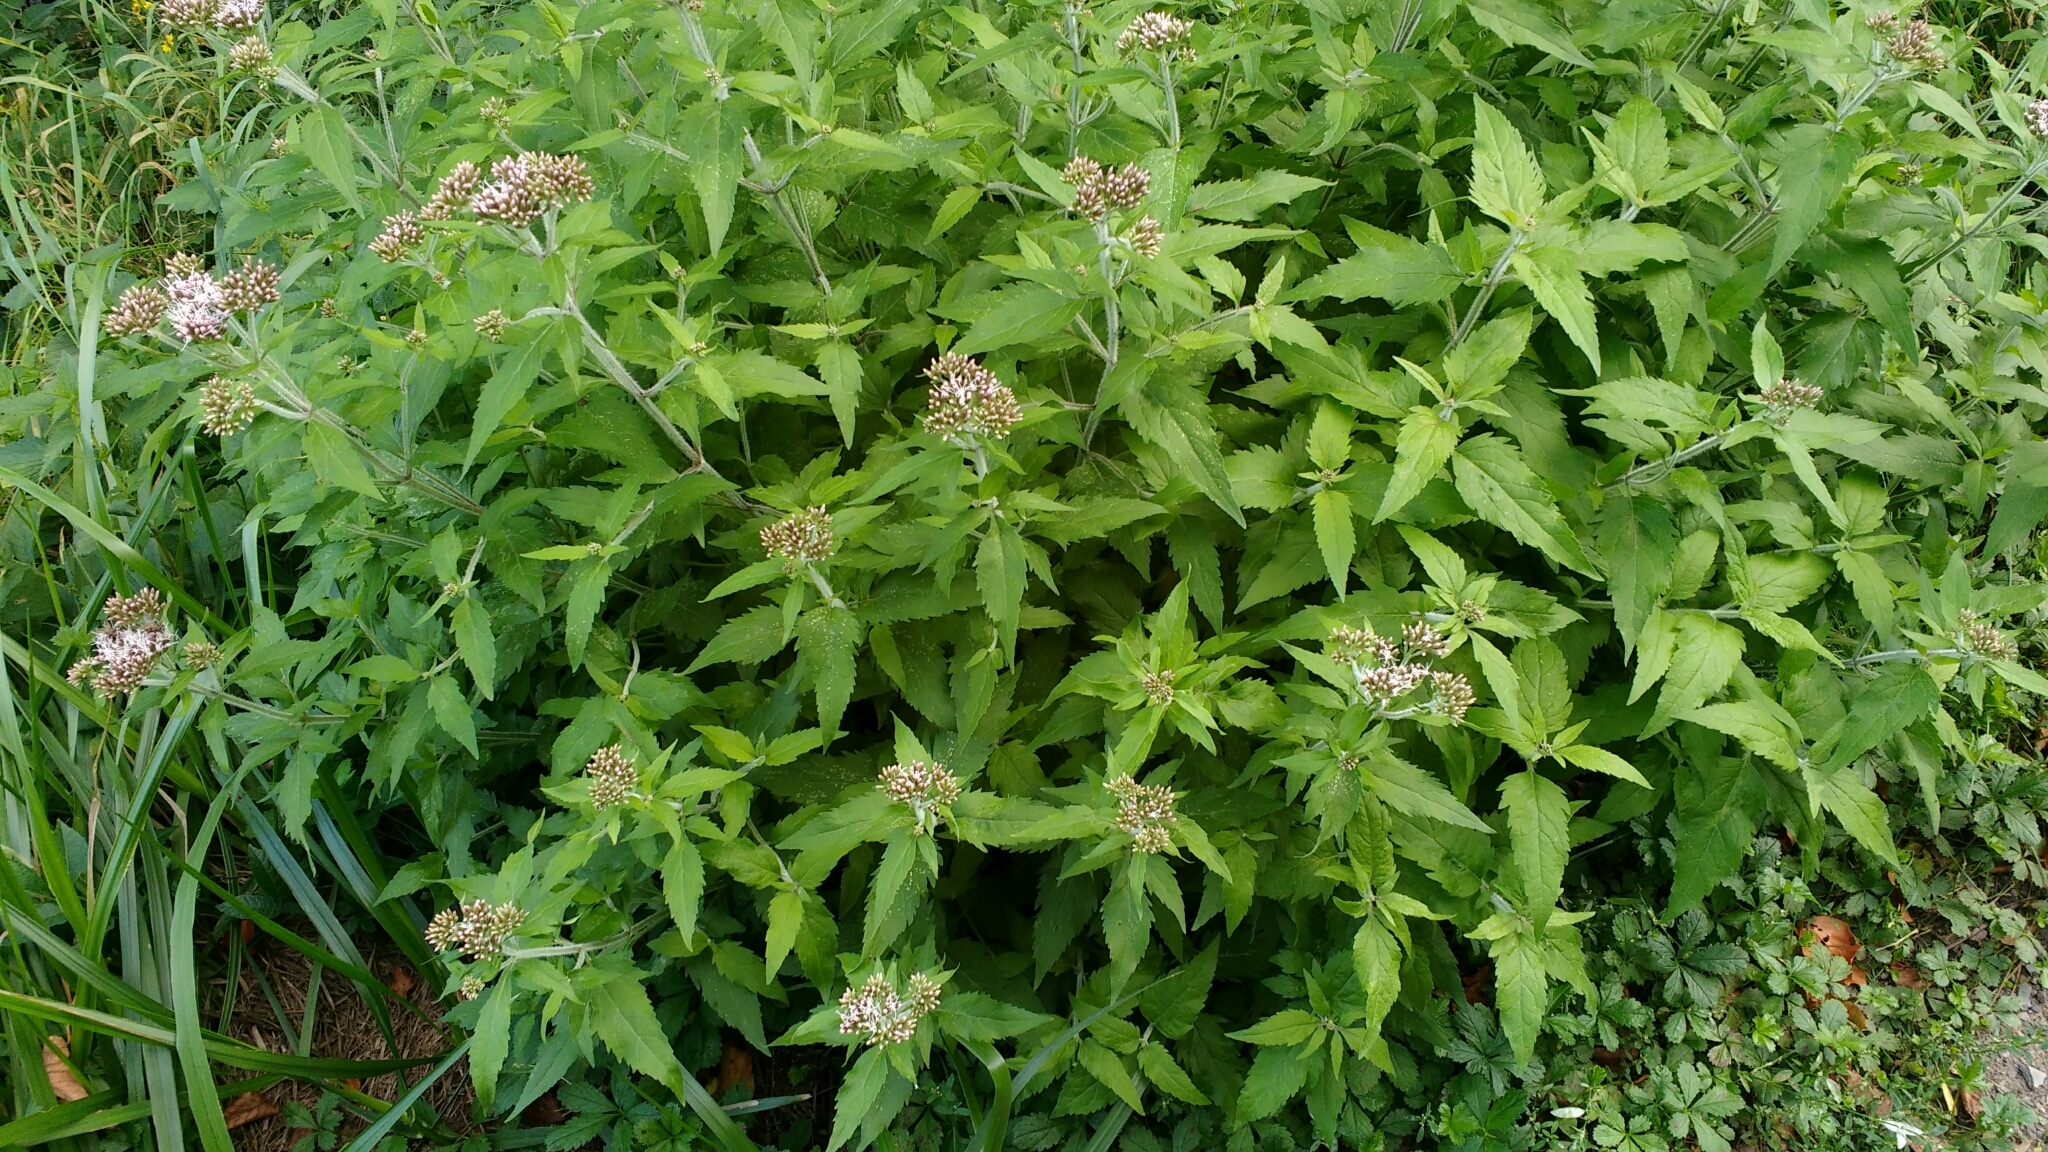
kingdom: Plantae
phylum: Tracheophyta
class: Magnoliopsida
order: Asterales
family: Asteraceae
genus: Eupatorium
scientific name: Eupatorium cannabinum
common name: Hemp-agrimony
